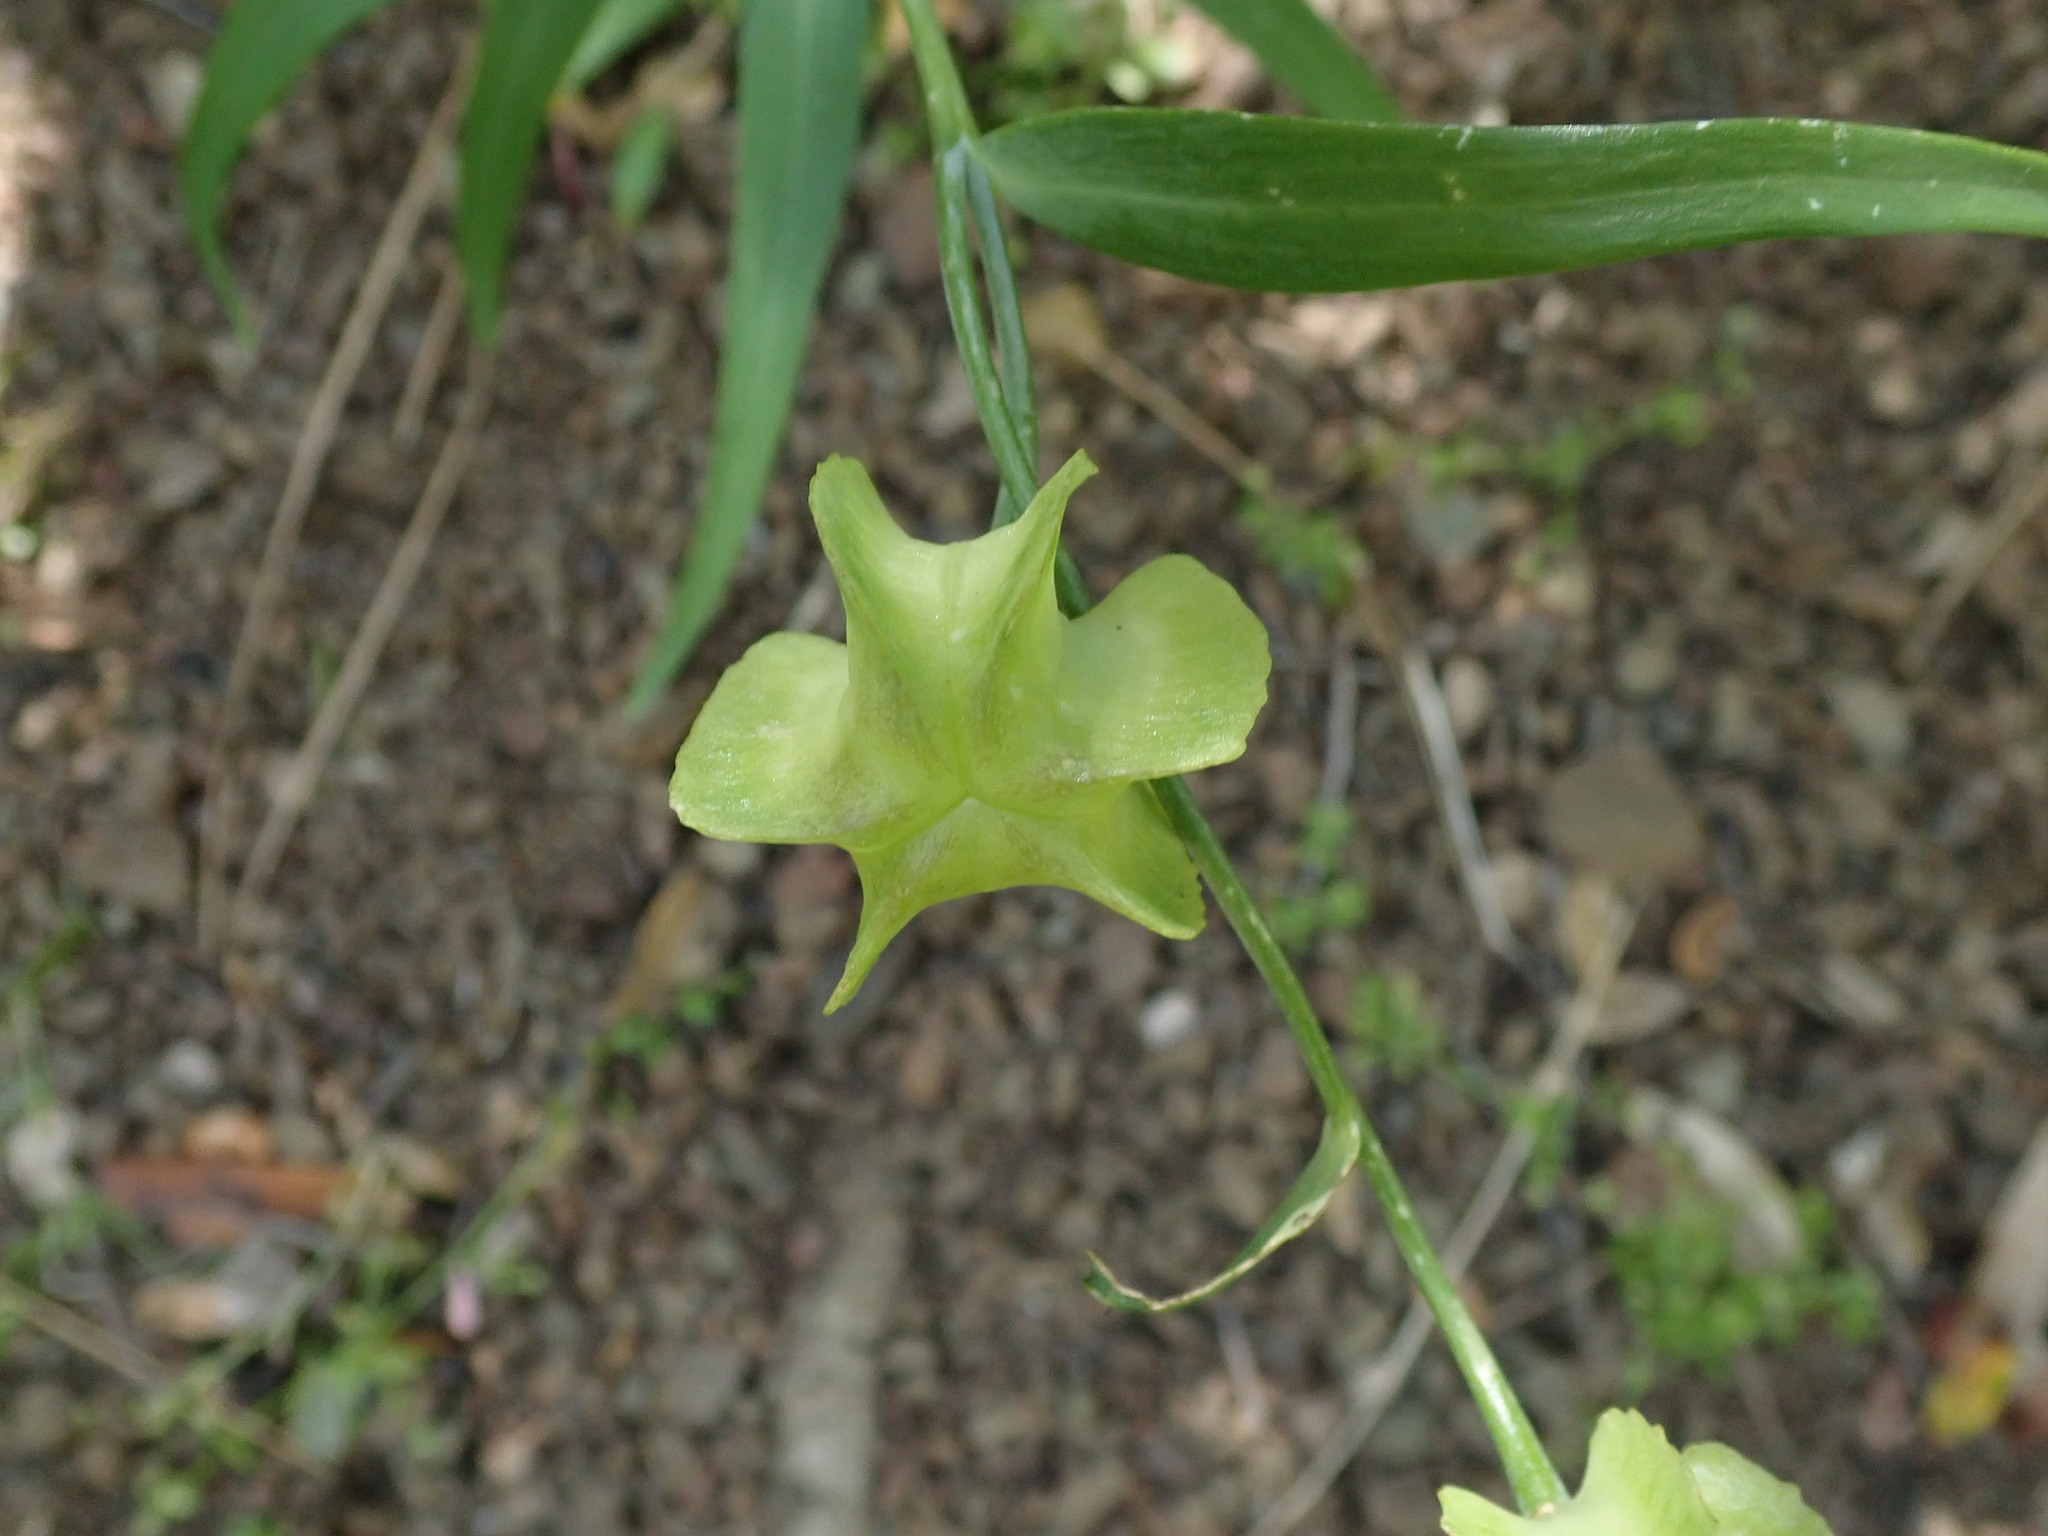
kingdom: Plantae
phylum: Tracheophyta
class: Liliopsida
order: Liliales
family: Liliaceae
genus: Fritillaria
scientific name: Fritillaria affinis
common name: Ojai fritillary
